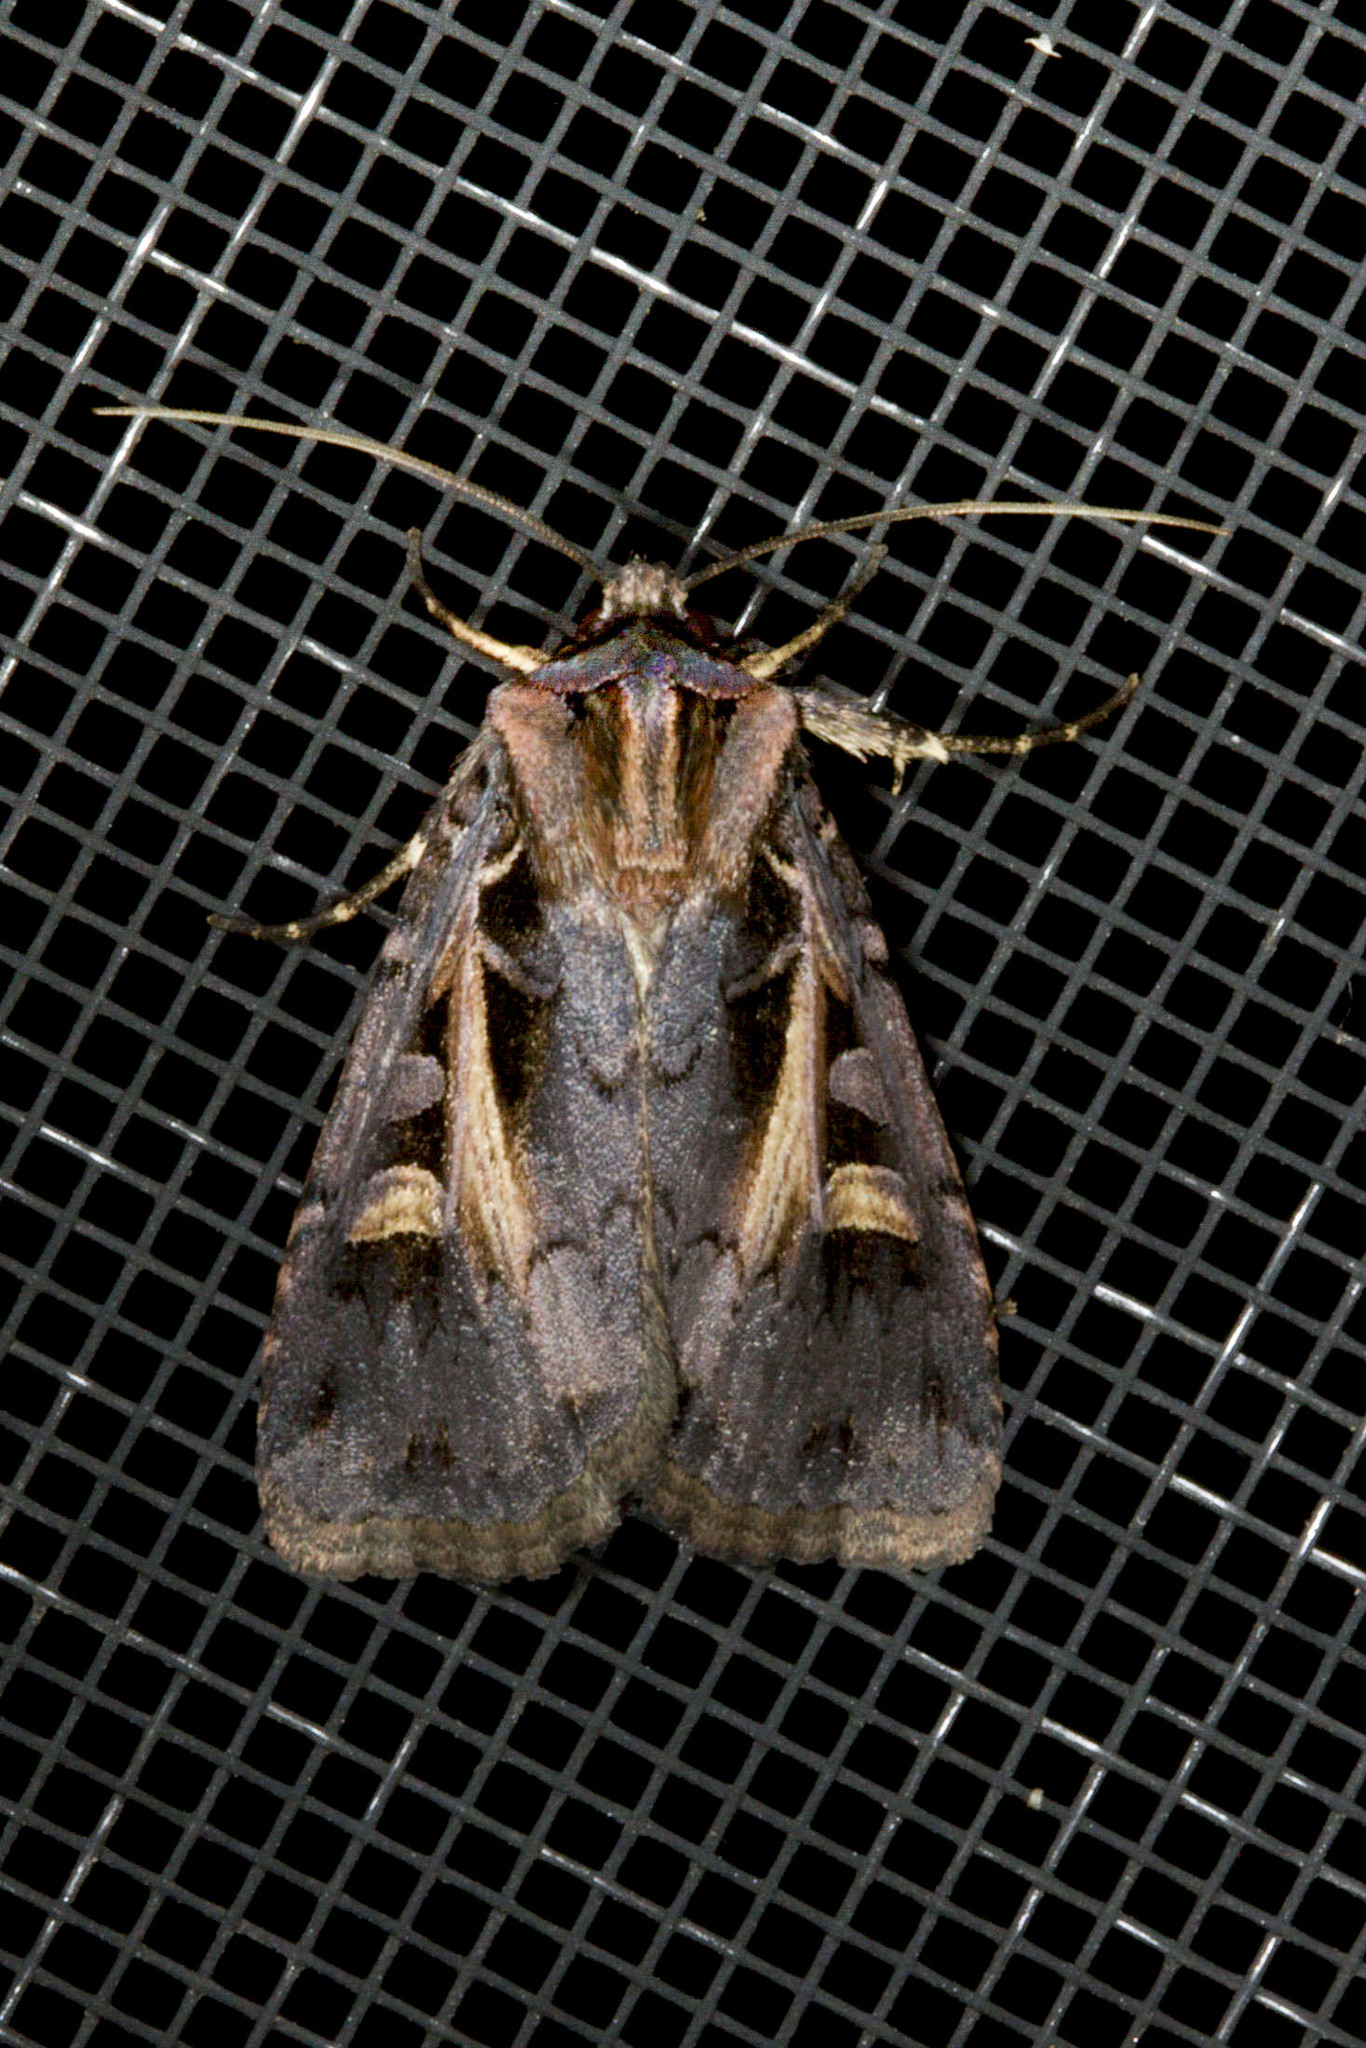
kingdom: Animalia
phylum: Arthropoda
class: Insecta
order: Lepidoptera
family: Noctuidae
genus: Feltia
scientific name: Feltia herilis
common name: Master's dart
